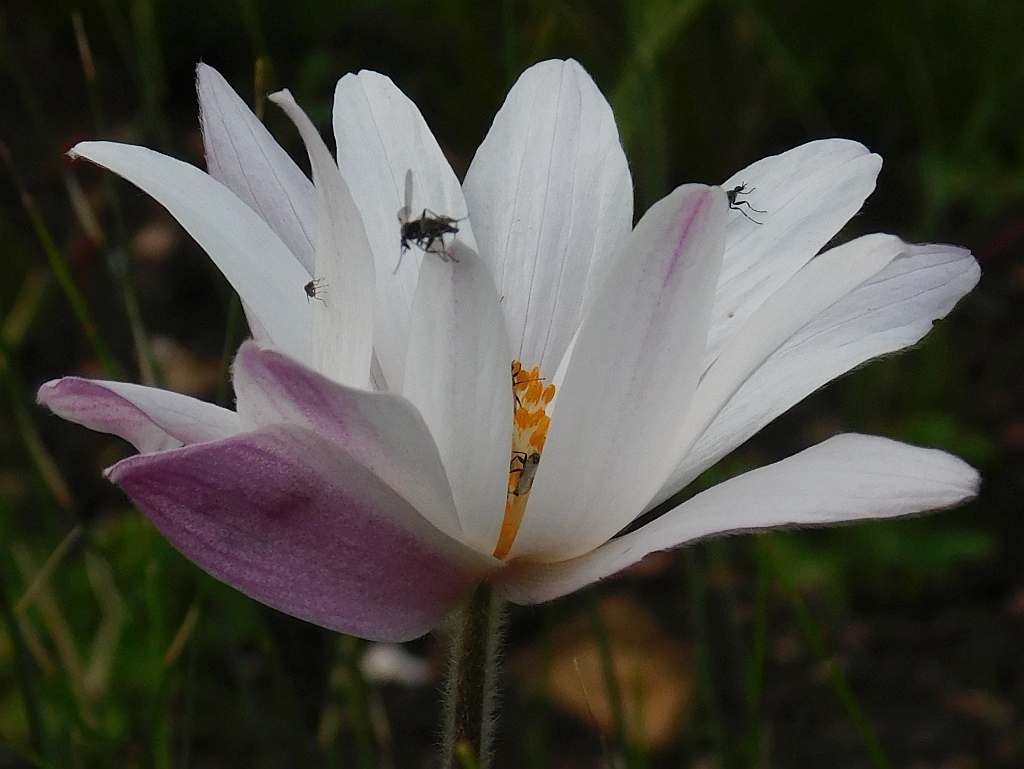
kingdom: Plantae
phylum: Tracheophyta
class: Magnoliopsida
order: Ranunculales
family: Ranunculaceae
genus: Knowltonia
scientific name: Knowltonia tenuifolia
